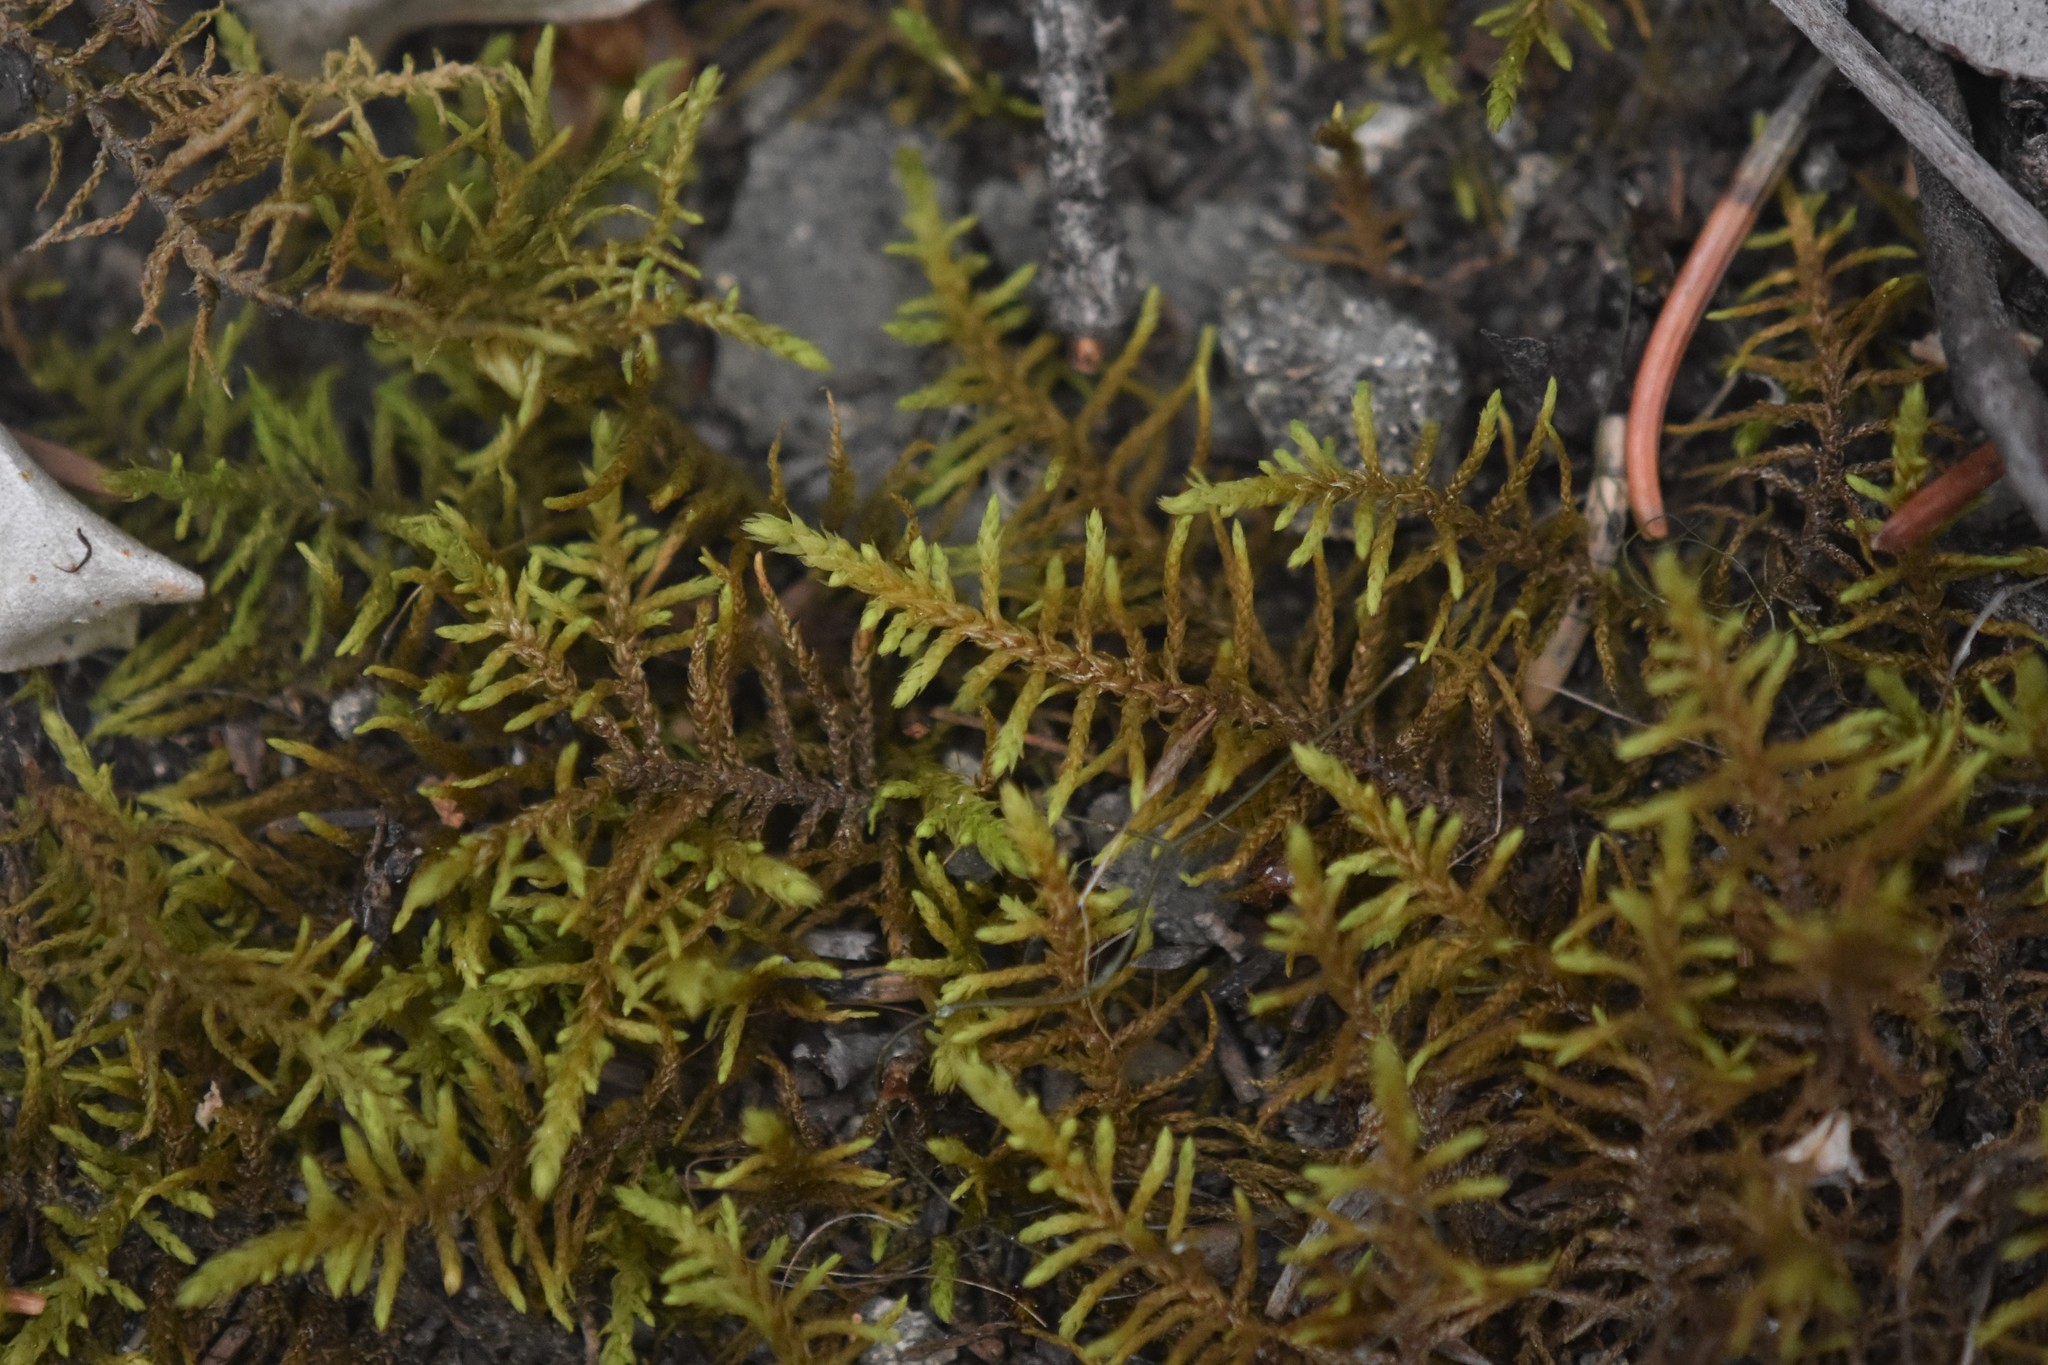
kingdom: Plantae
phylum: Bryophyta
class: Bryopsida
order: Hypnales
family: Thuidiaceae
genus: Abietinella
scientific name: Abietinella abietina
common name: Wiry fern moss
